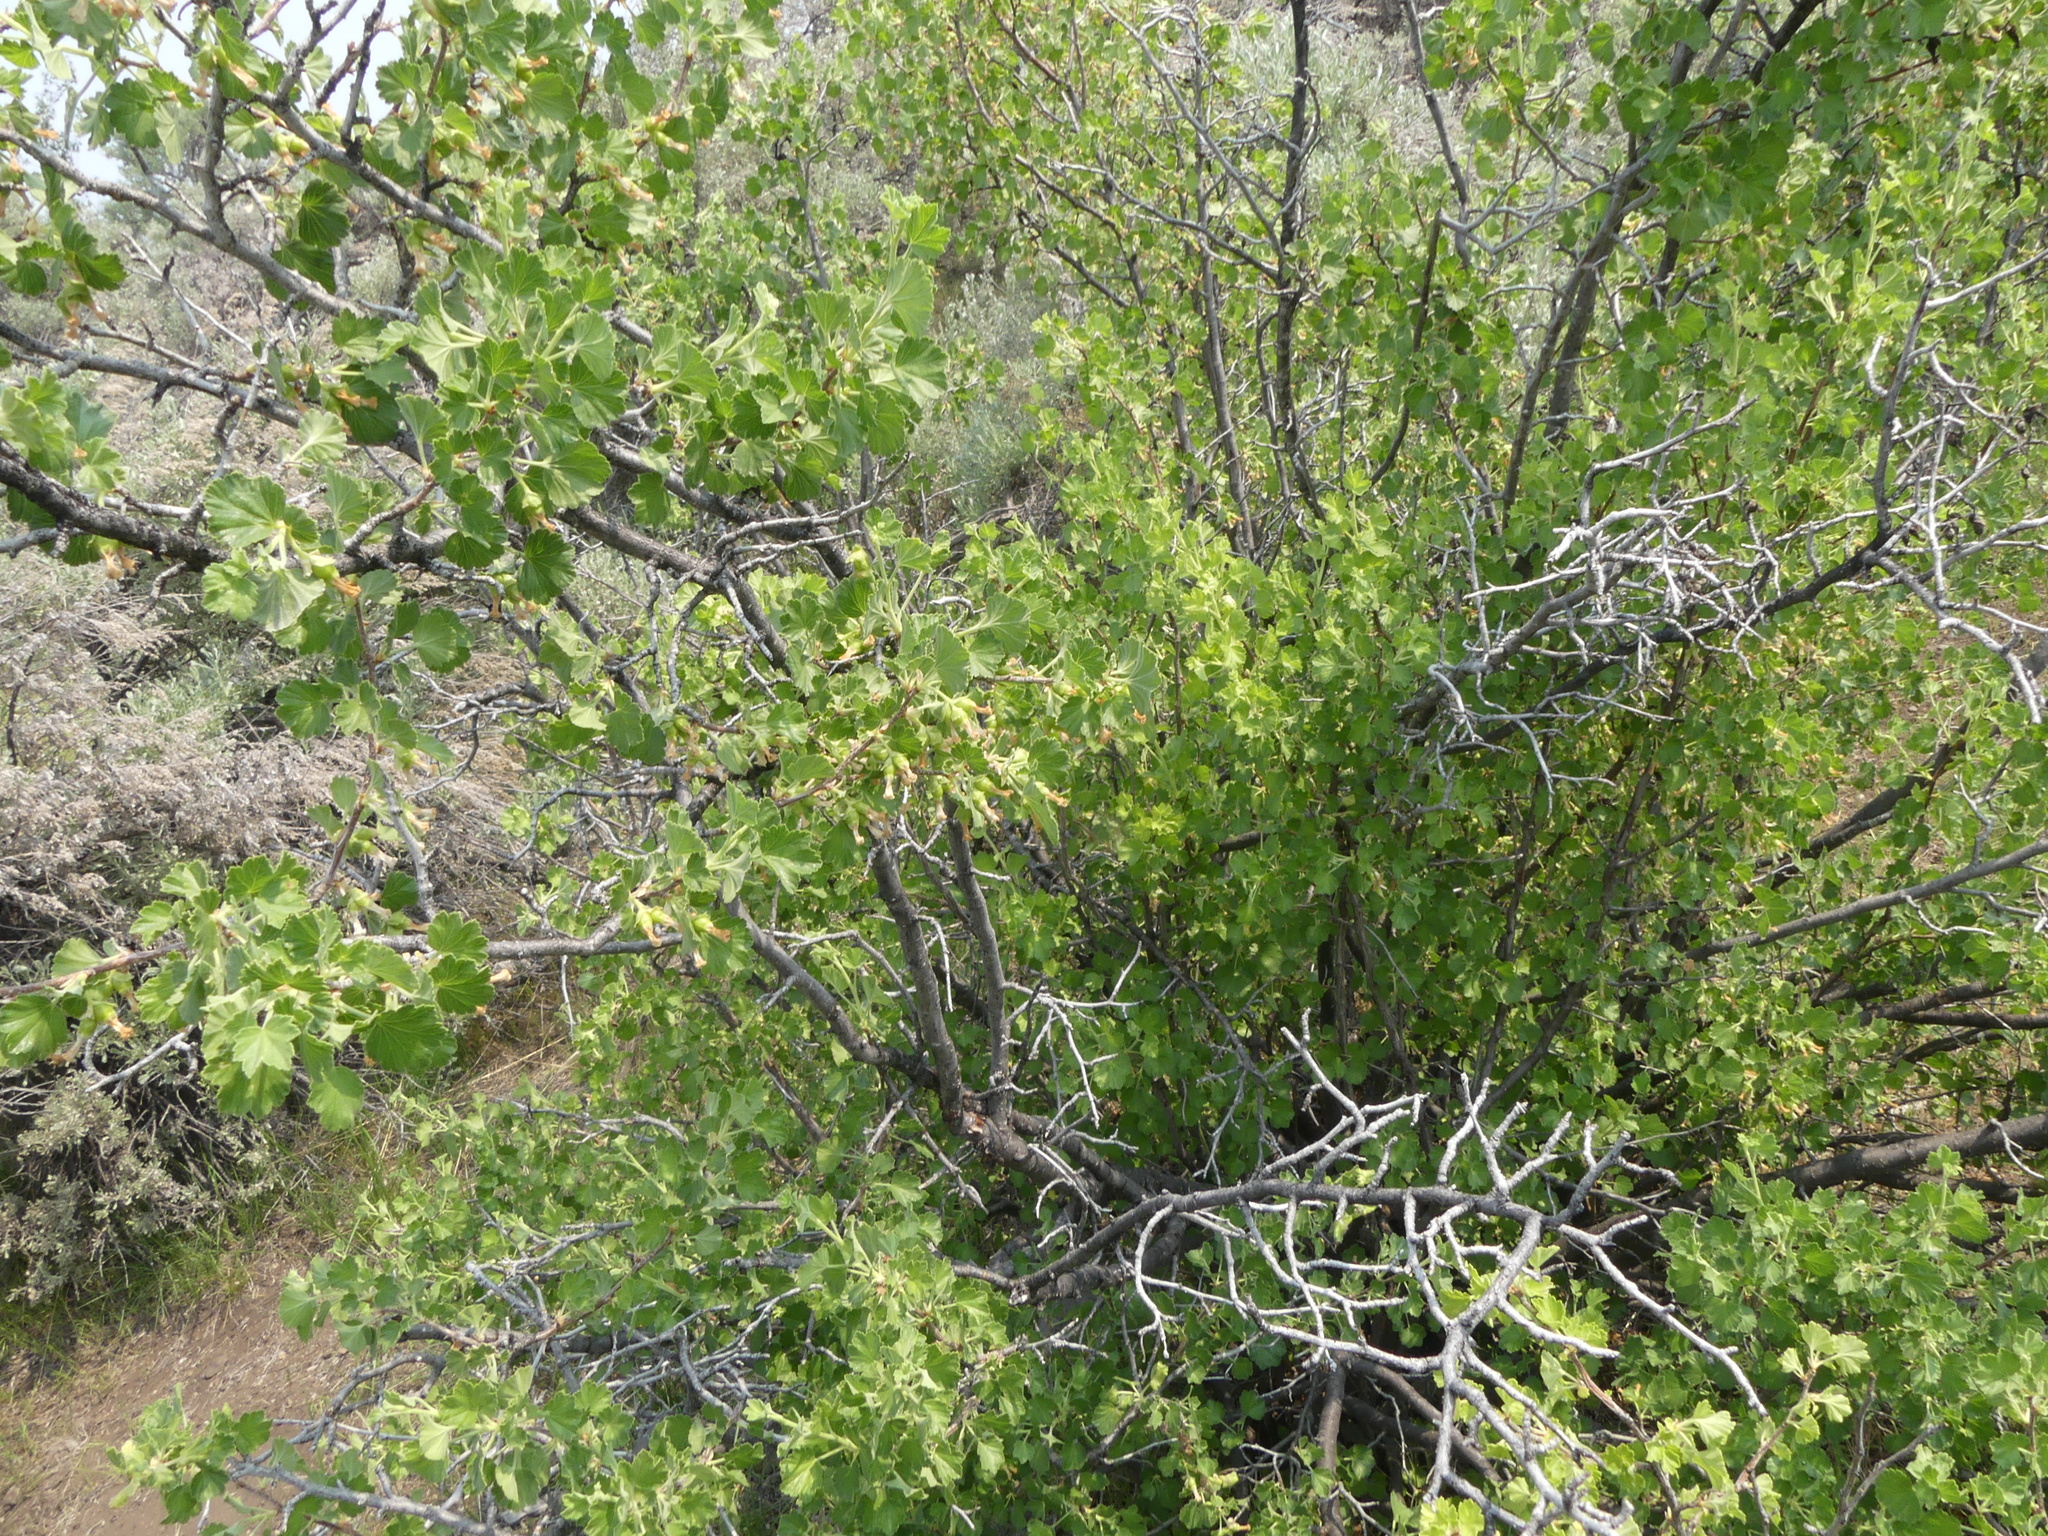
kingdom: Plantae
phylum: Tracheophyta
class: Magnoliopsida
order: Saxifragales
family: Grossulariaceae
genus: Ribes
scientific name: Ribes cereum
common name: Wax currant
